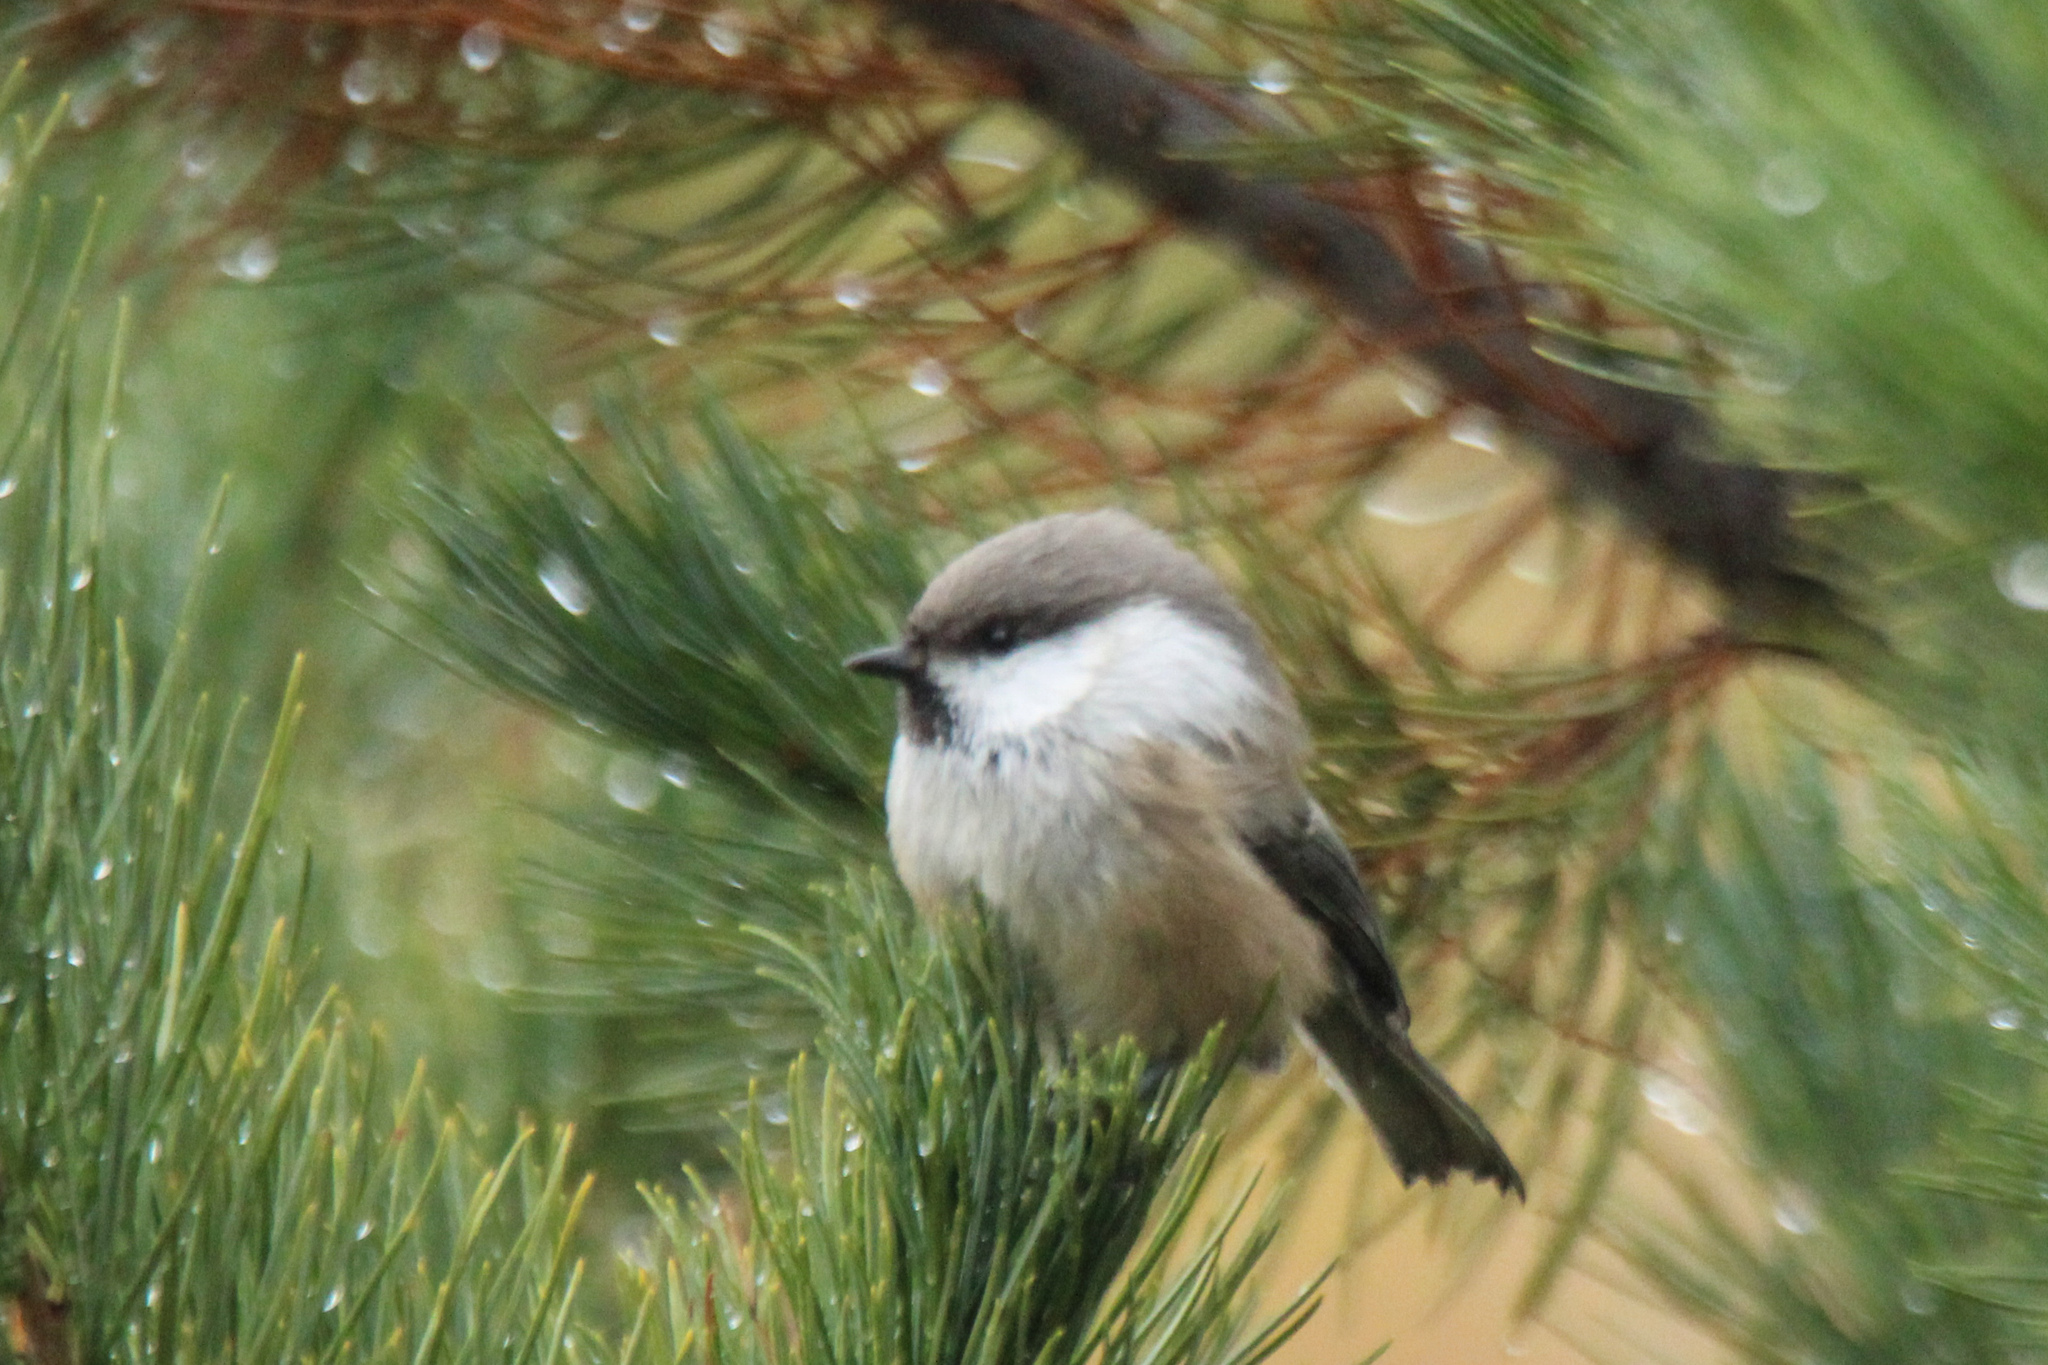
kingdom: Animalia
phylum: Chordata
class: Aves
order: Passeriformes
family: Paridae
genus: Poecile
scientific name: Poecile cinctus
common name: Gray-headed chickadee
